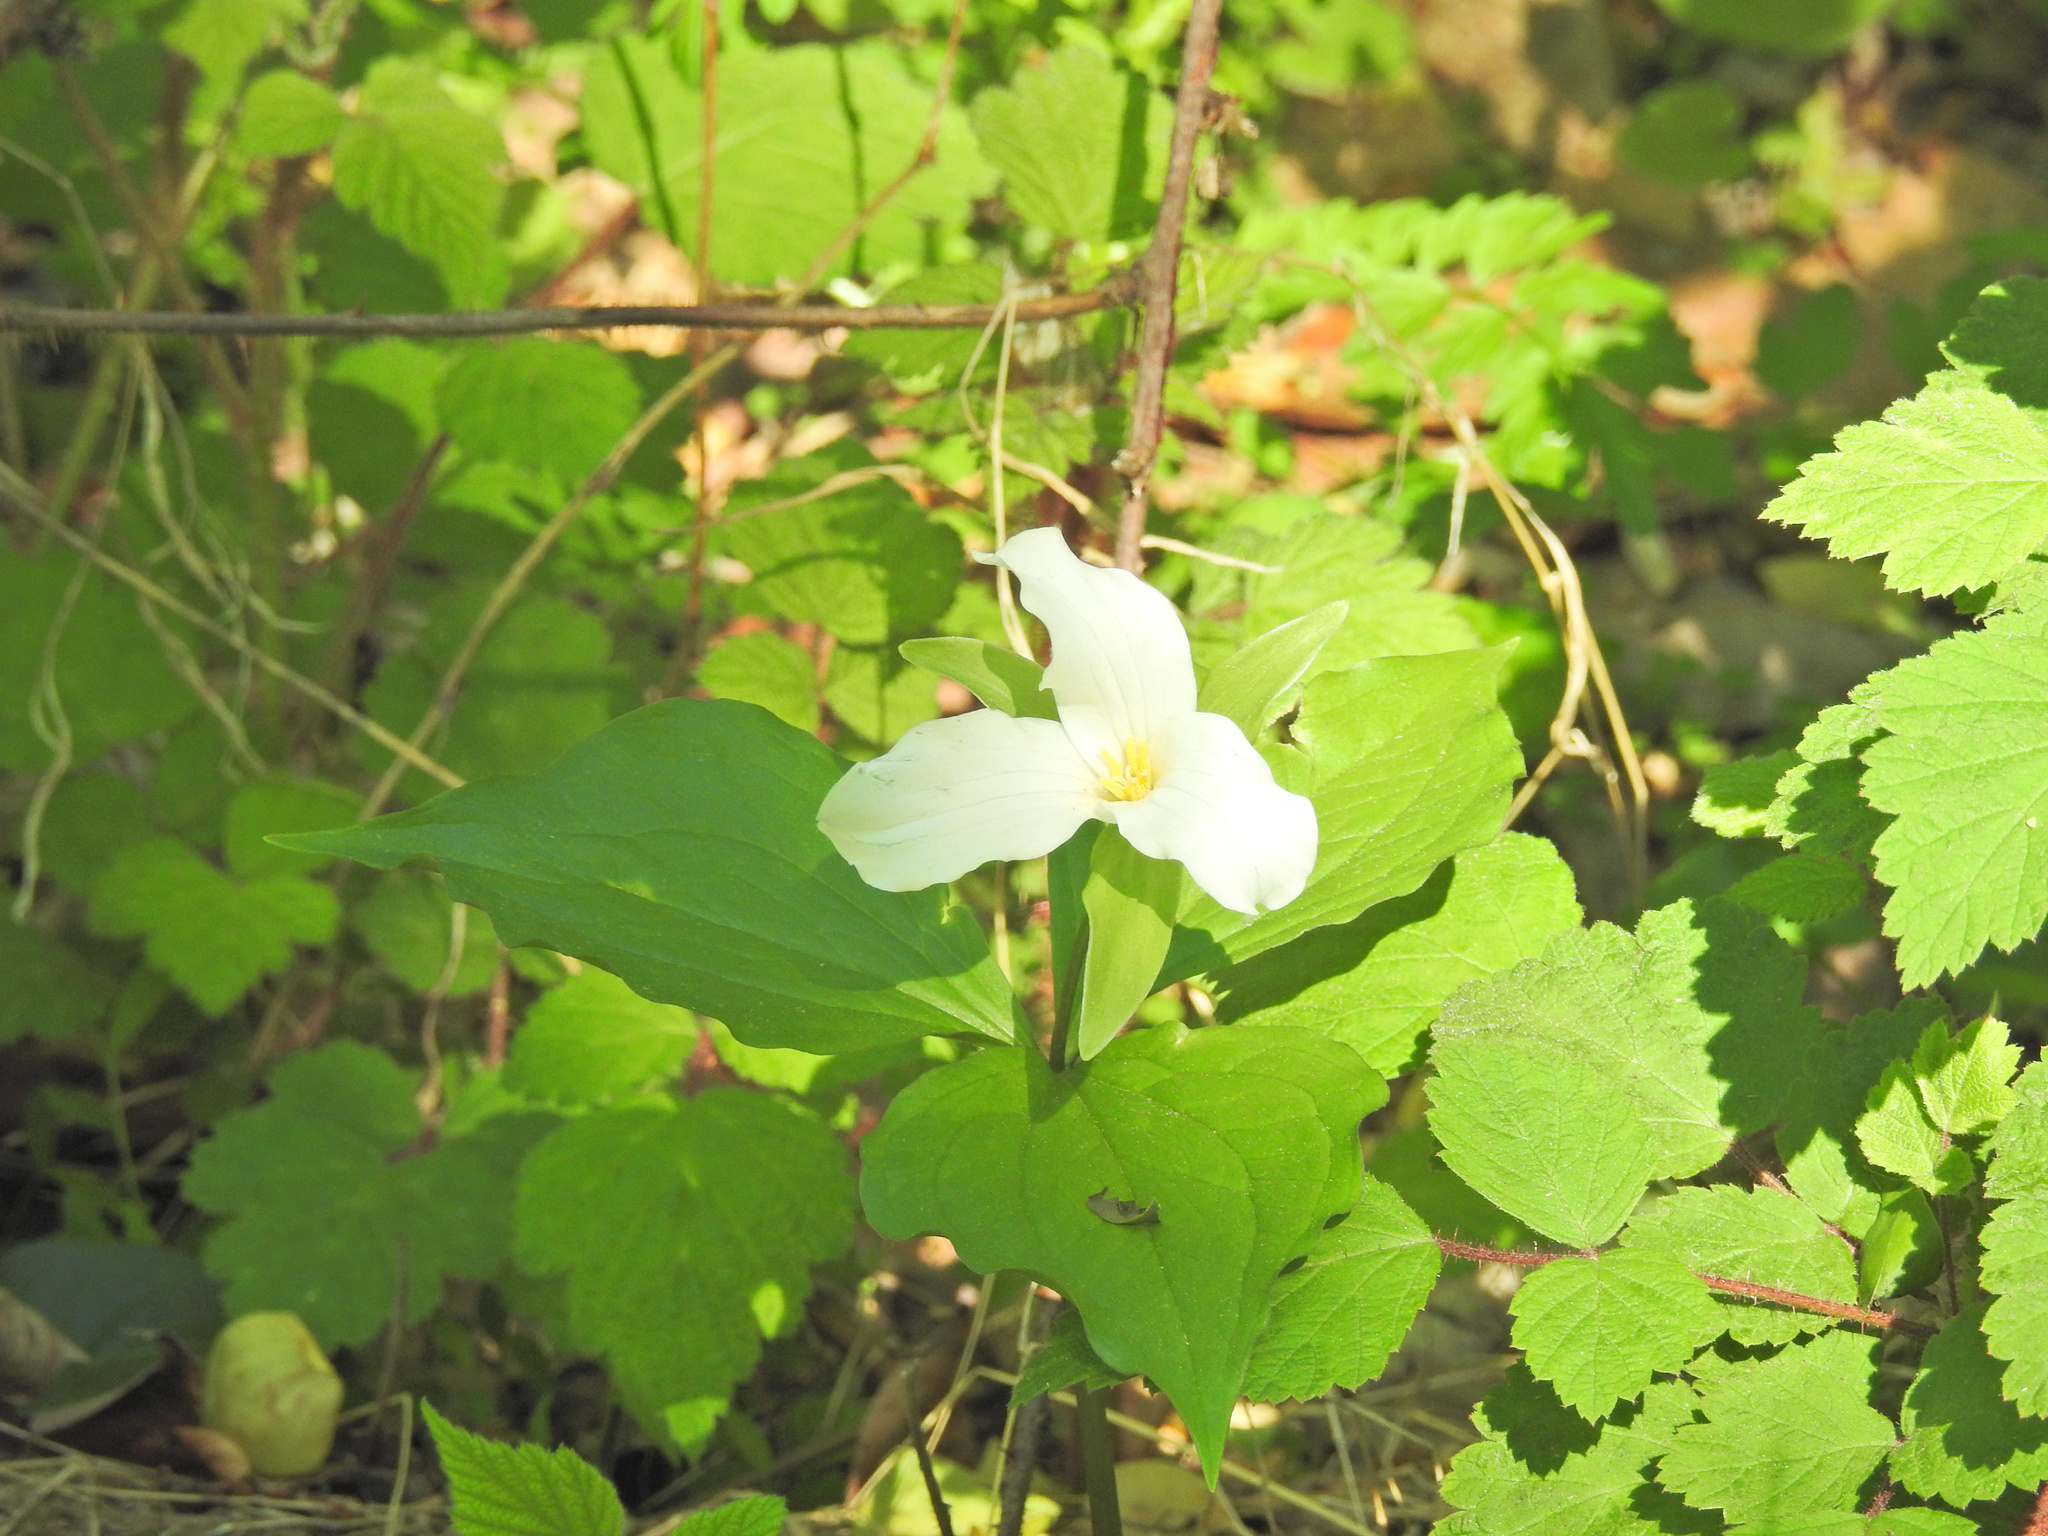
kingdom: Plantae
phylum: Tracheophyta
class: Liliopsida
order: Liliales
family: Melanthiaceae
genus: Trillium
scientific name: Trillium grandiflorum
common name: Great white trillium
